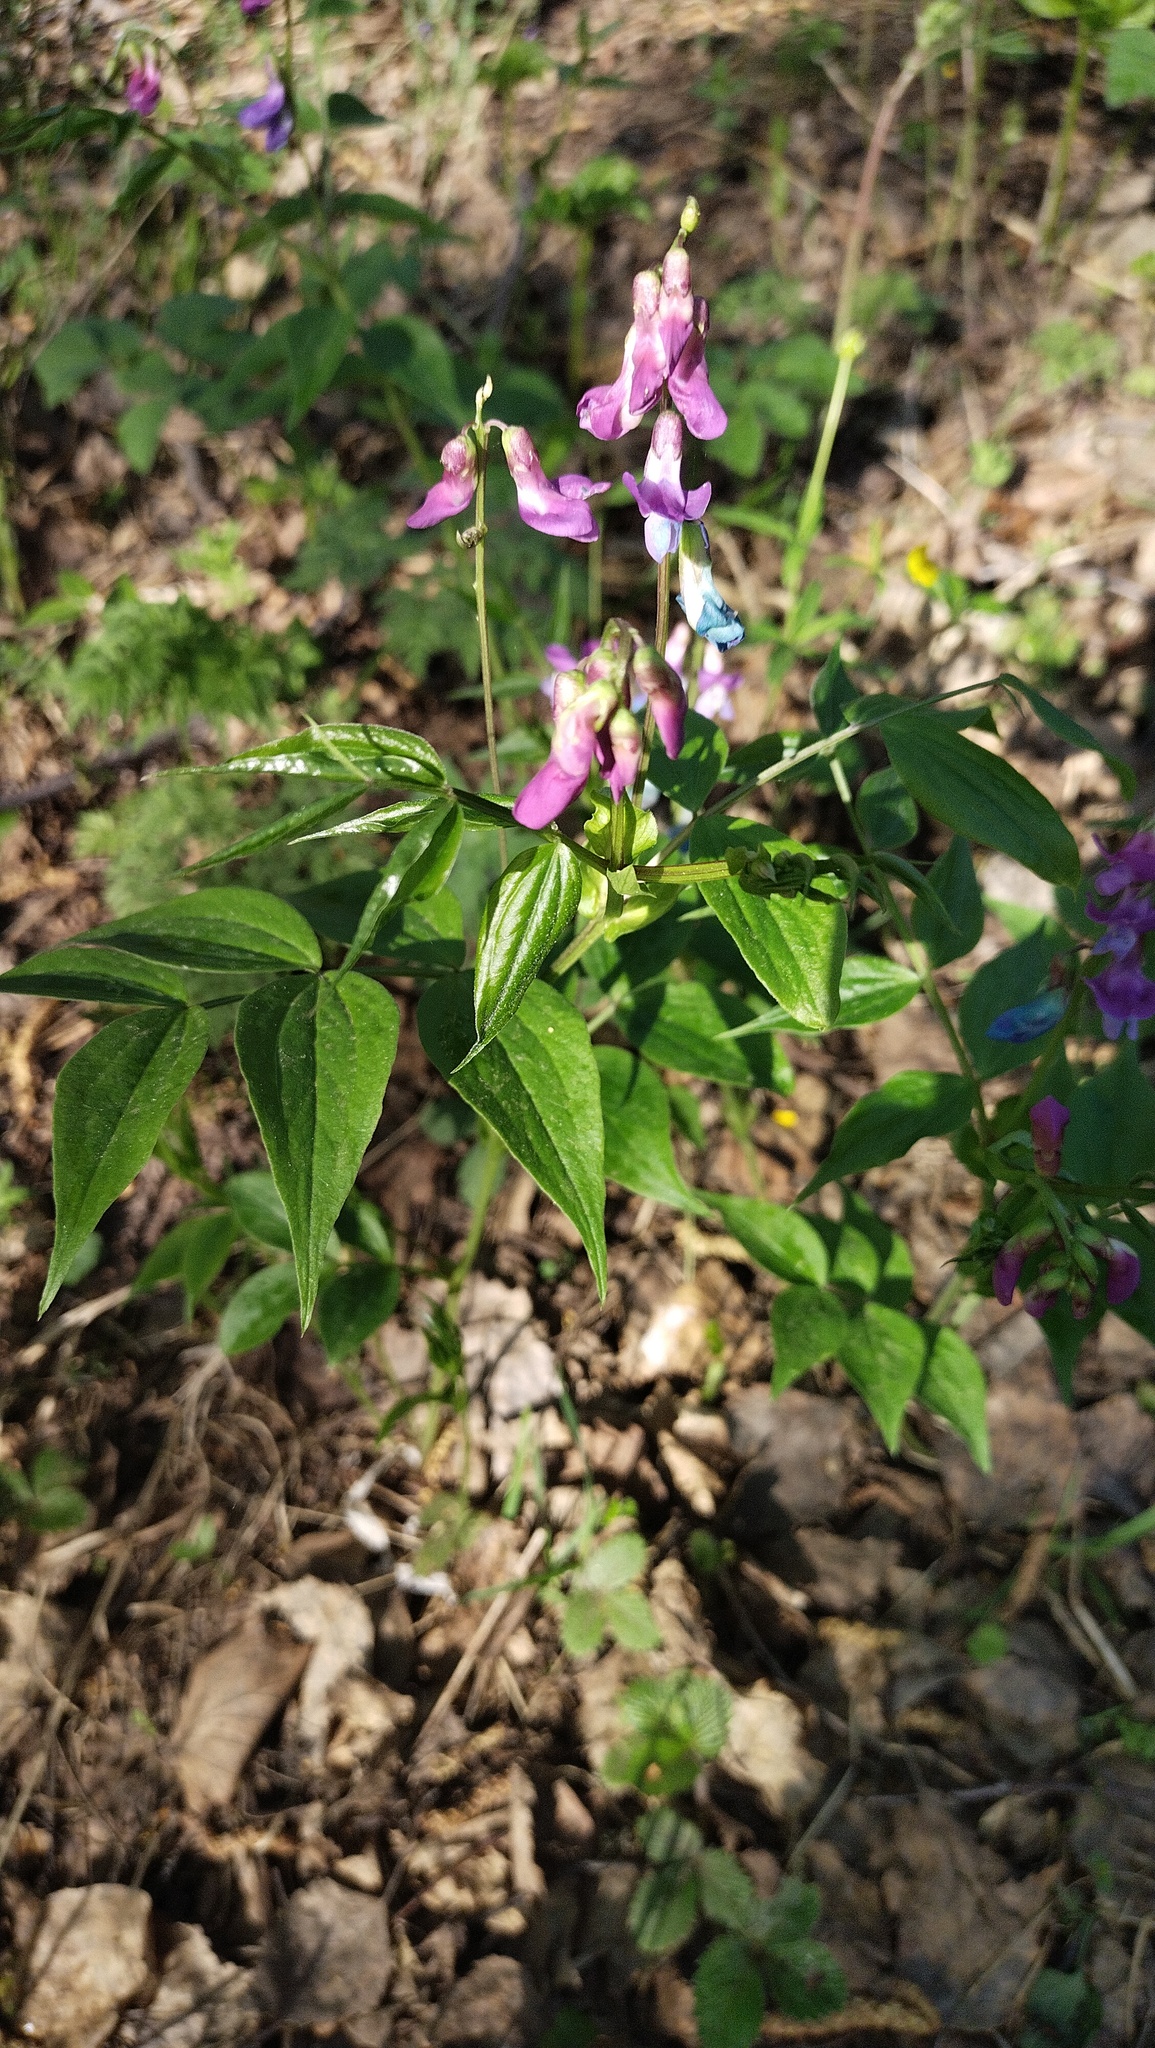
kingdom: Plantae
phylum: Tracheophyta
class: Magnoliopsida
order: Fabales
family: Fabaceae
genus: Lathyrus
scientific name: Lathyrus vernus
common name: Spring pea
